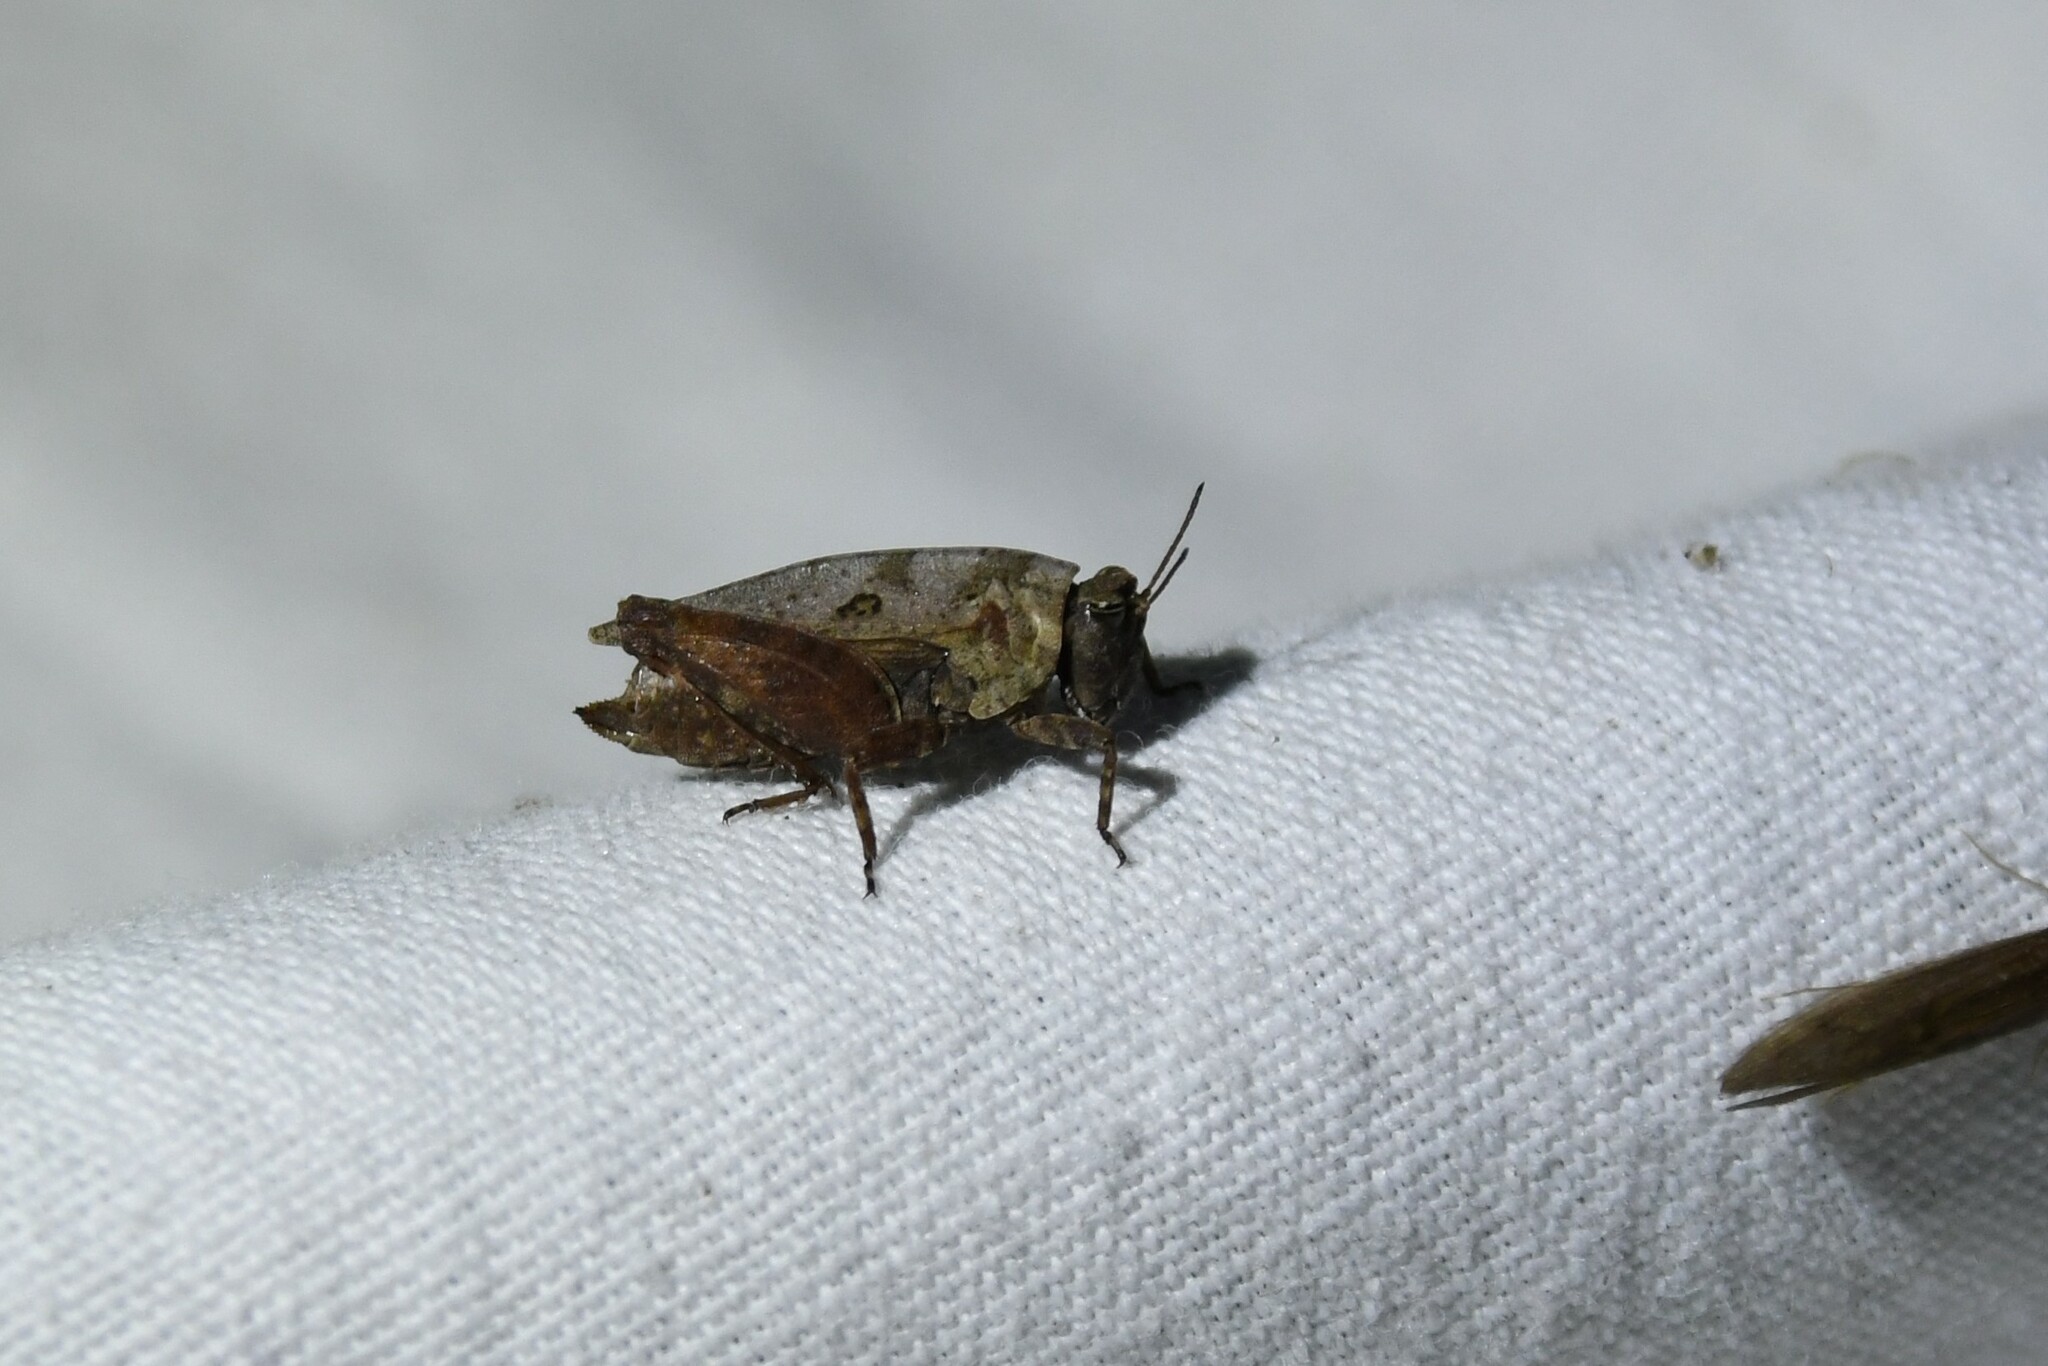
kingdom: Animalia
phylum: Arthropoda
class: Insecta
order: Orthoptera
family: Tetrigidae
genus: Nomotettix
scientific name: Nomotettix cristatus
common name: Crested grouse locust
